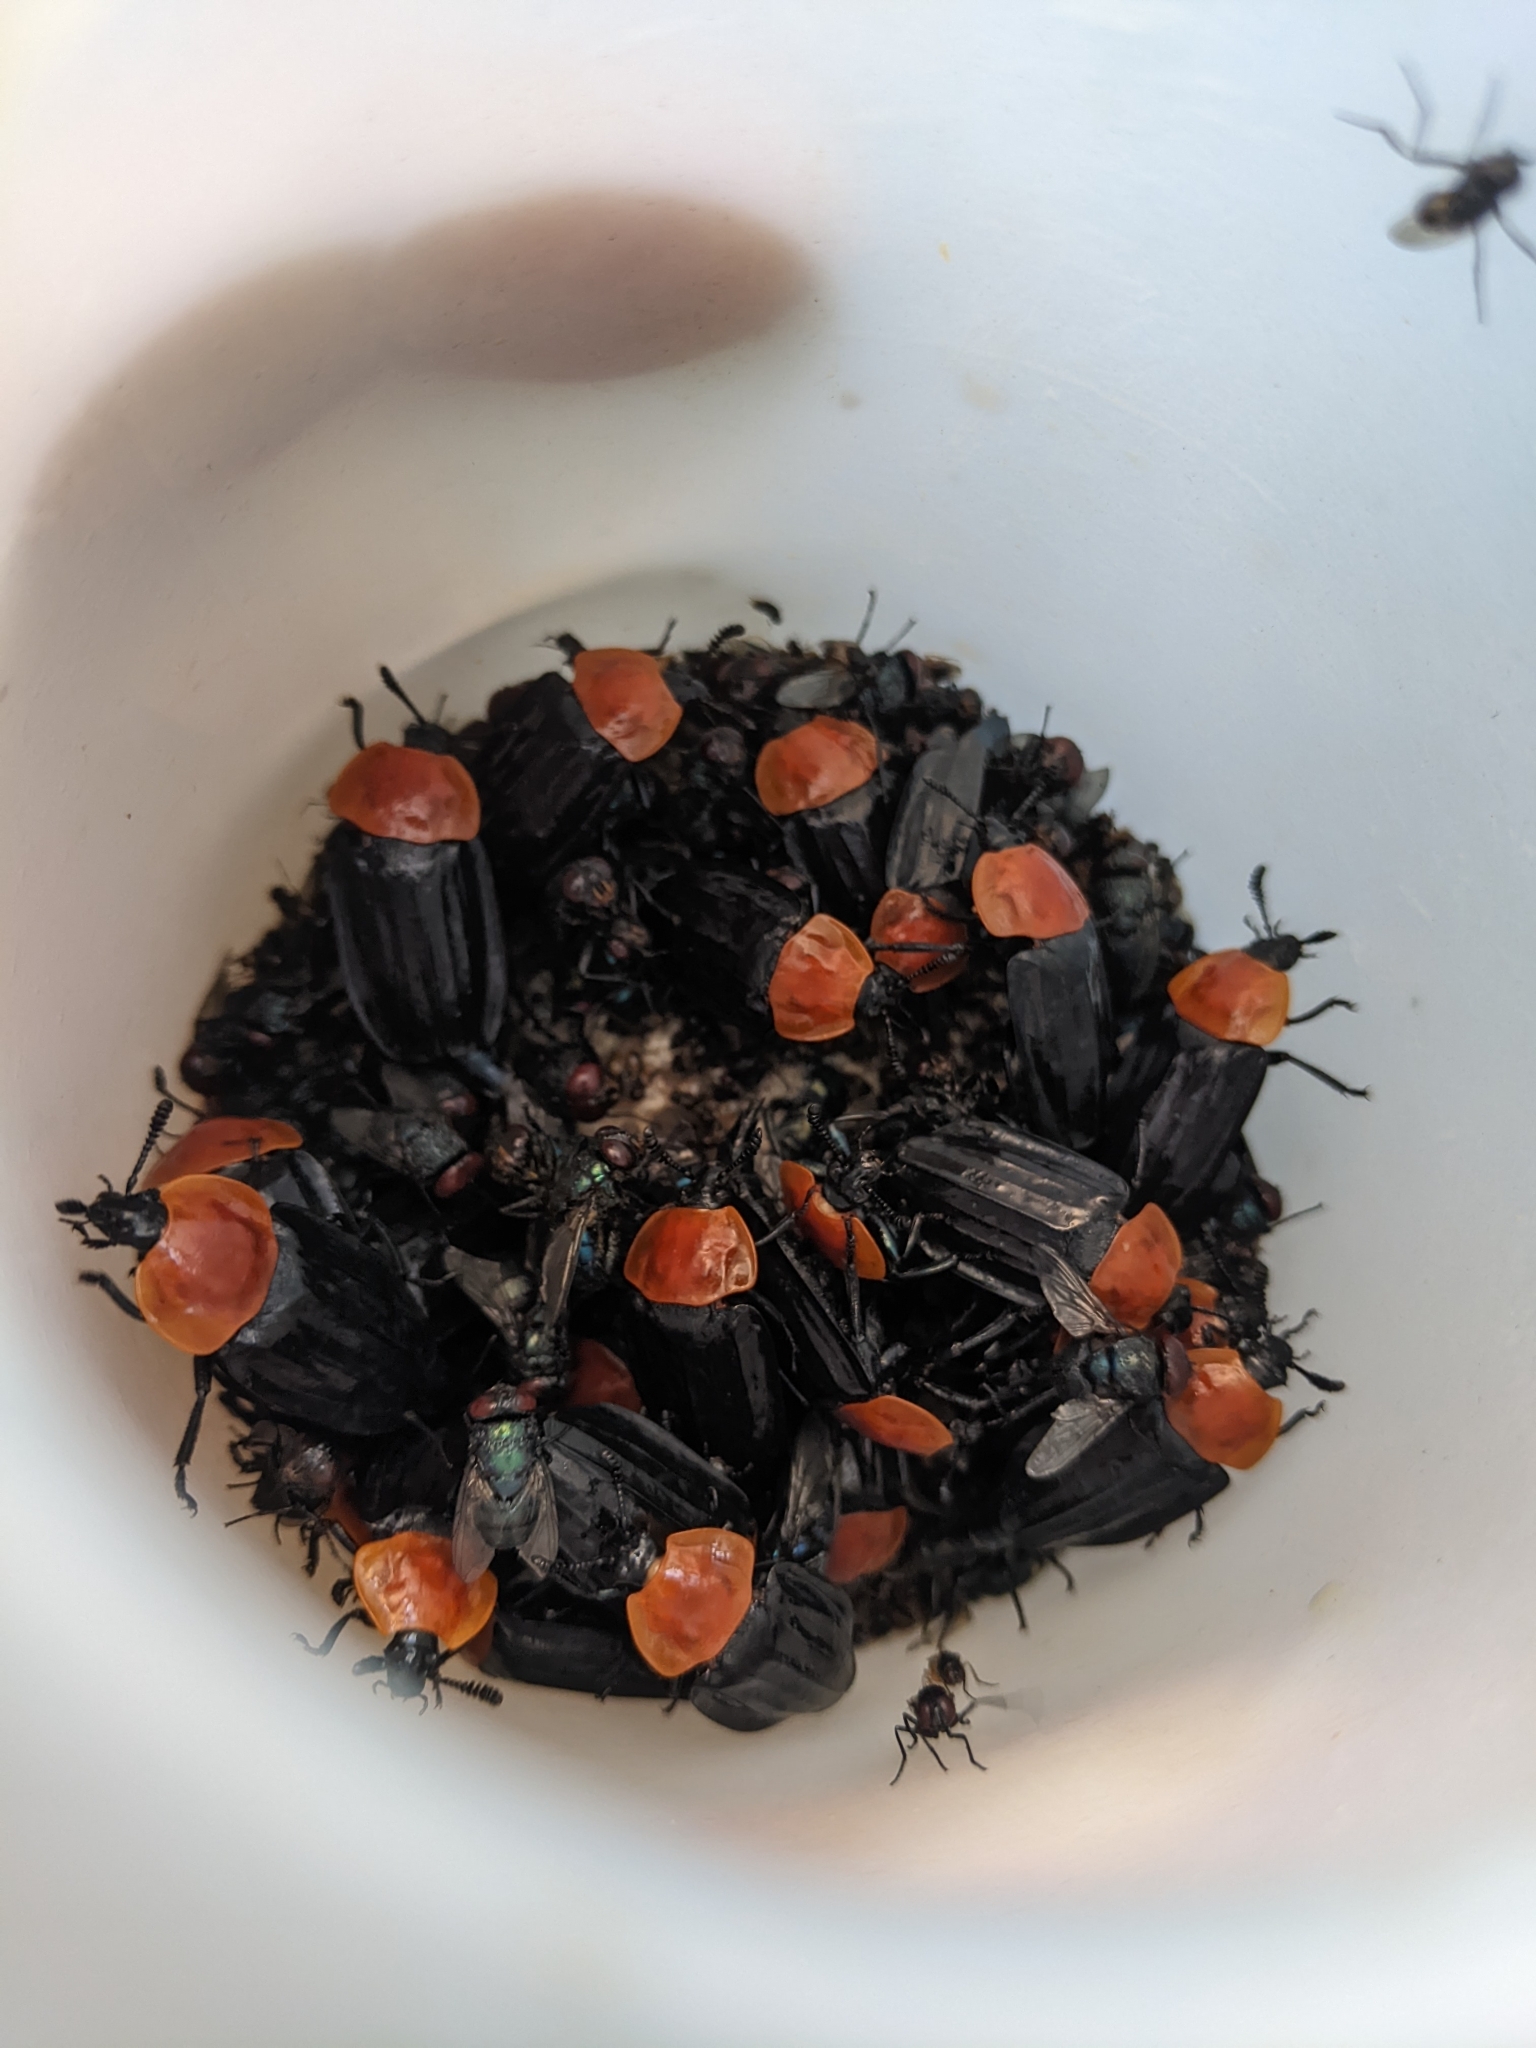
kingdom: Animalia
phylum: Arthropoda
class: Insecta
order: Coleoptera
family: Staphylinidae
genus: Necrophila
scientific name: Necrophila cyaneocephala
